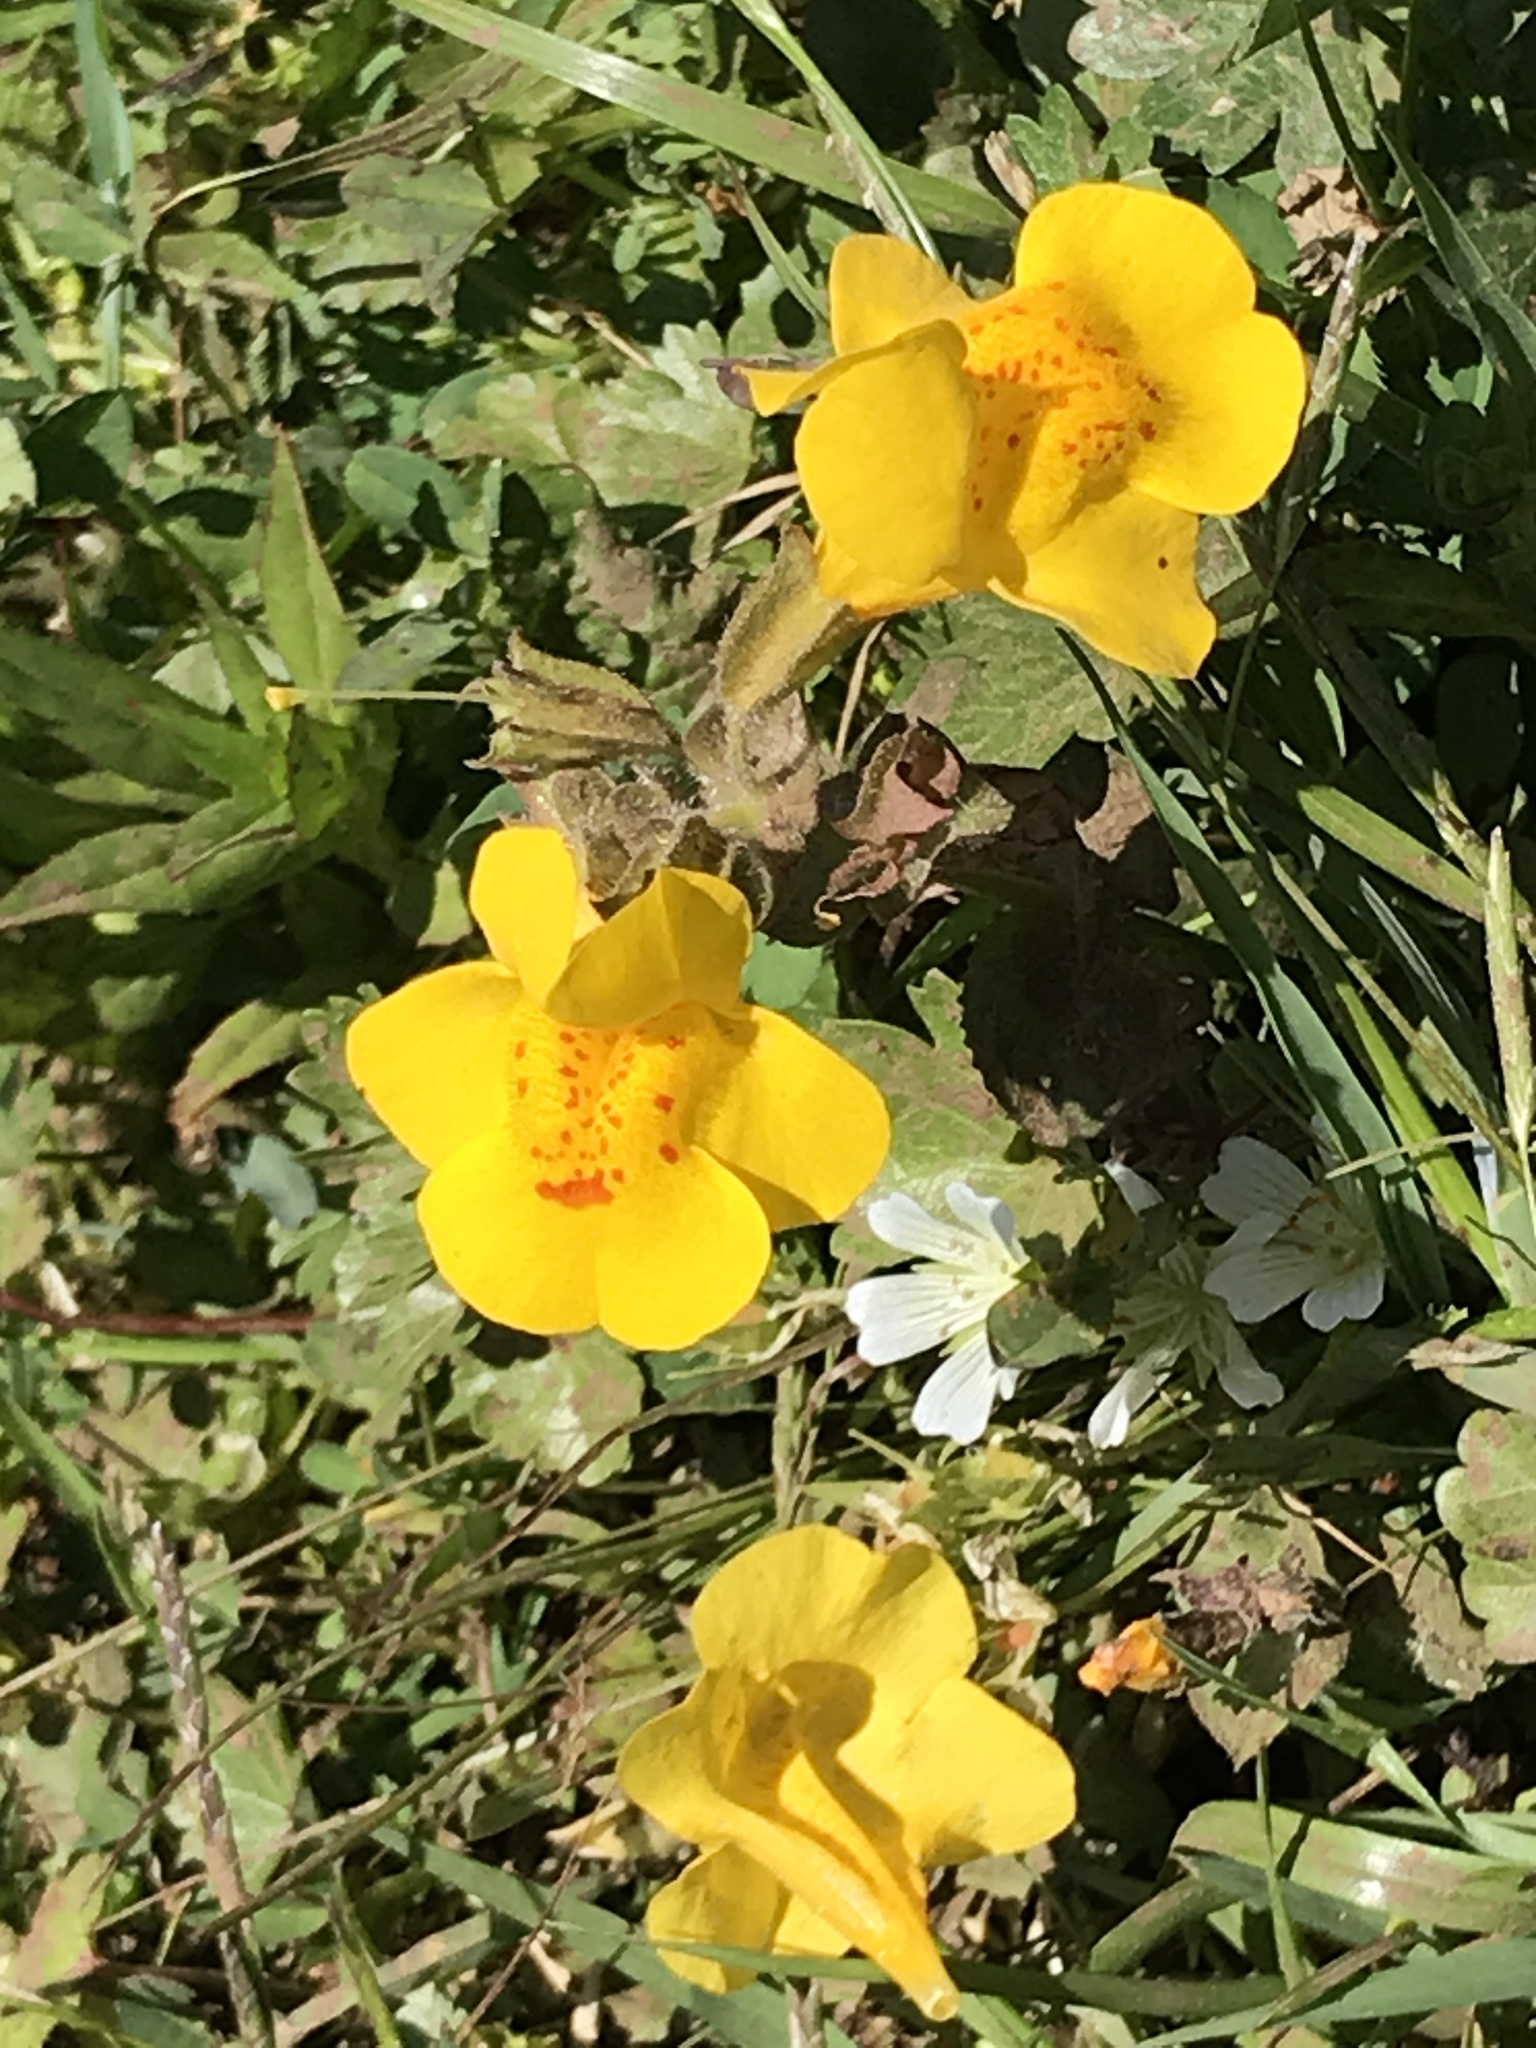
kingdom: Plantae
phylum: Tracheophyta
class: Magnoliopsida
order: Lamiales
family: Phrymaceae
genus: Erythranthe
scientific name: Erythranthe guttata
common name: Monkeyflower
